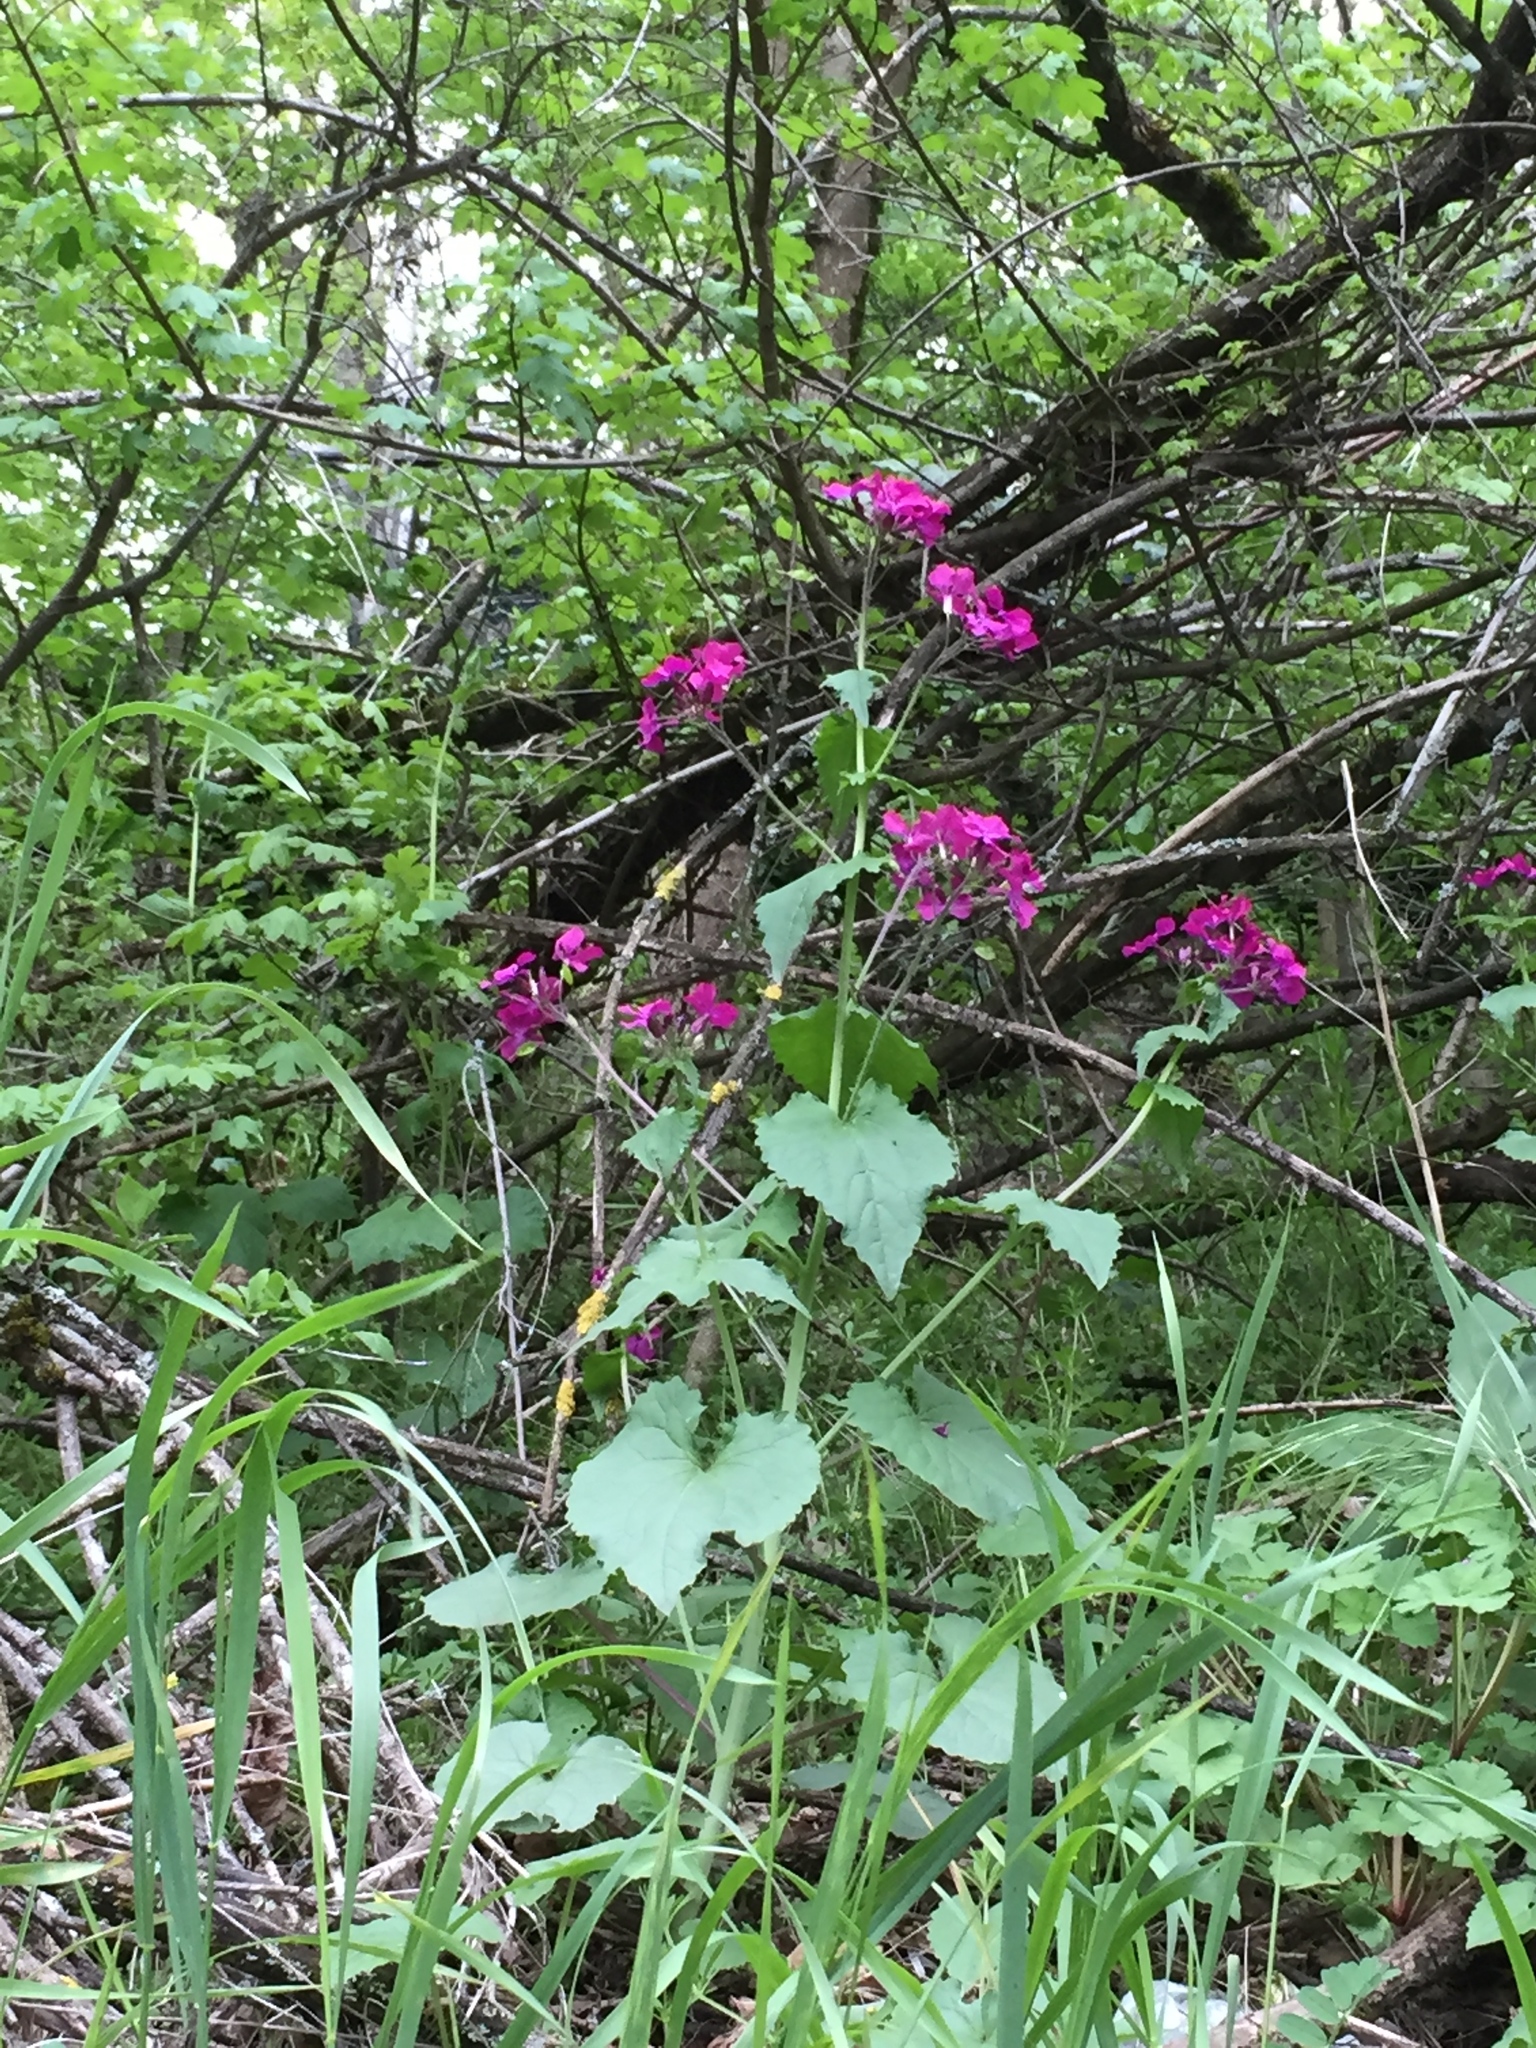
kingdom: Plantae
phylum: Tracheophyta
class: Magnoliopsida
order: Brassicales
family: Brassicaceae
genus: Lunaria
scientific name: Lunaria annua
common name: Honesty
